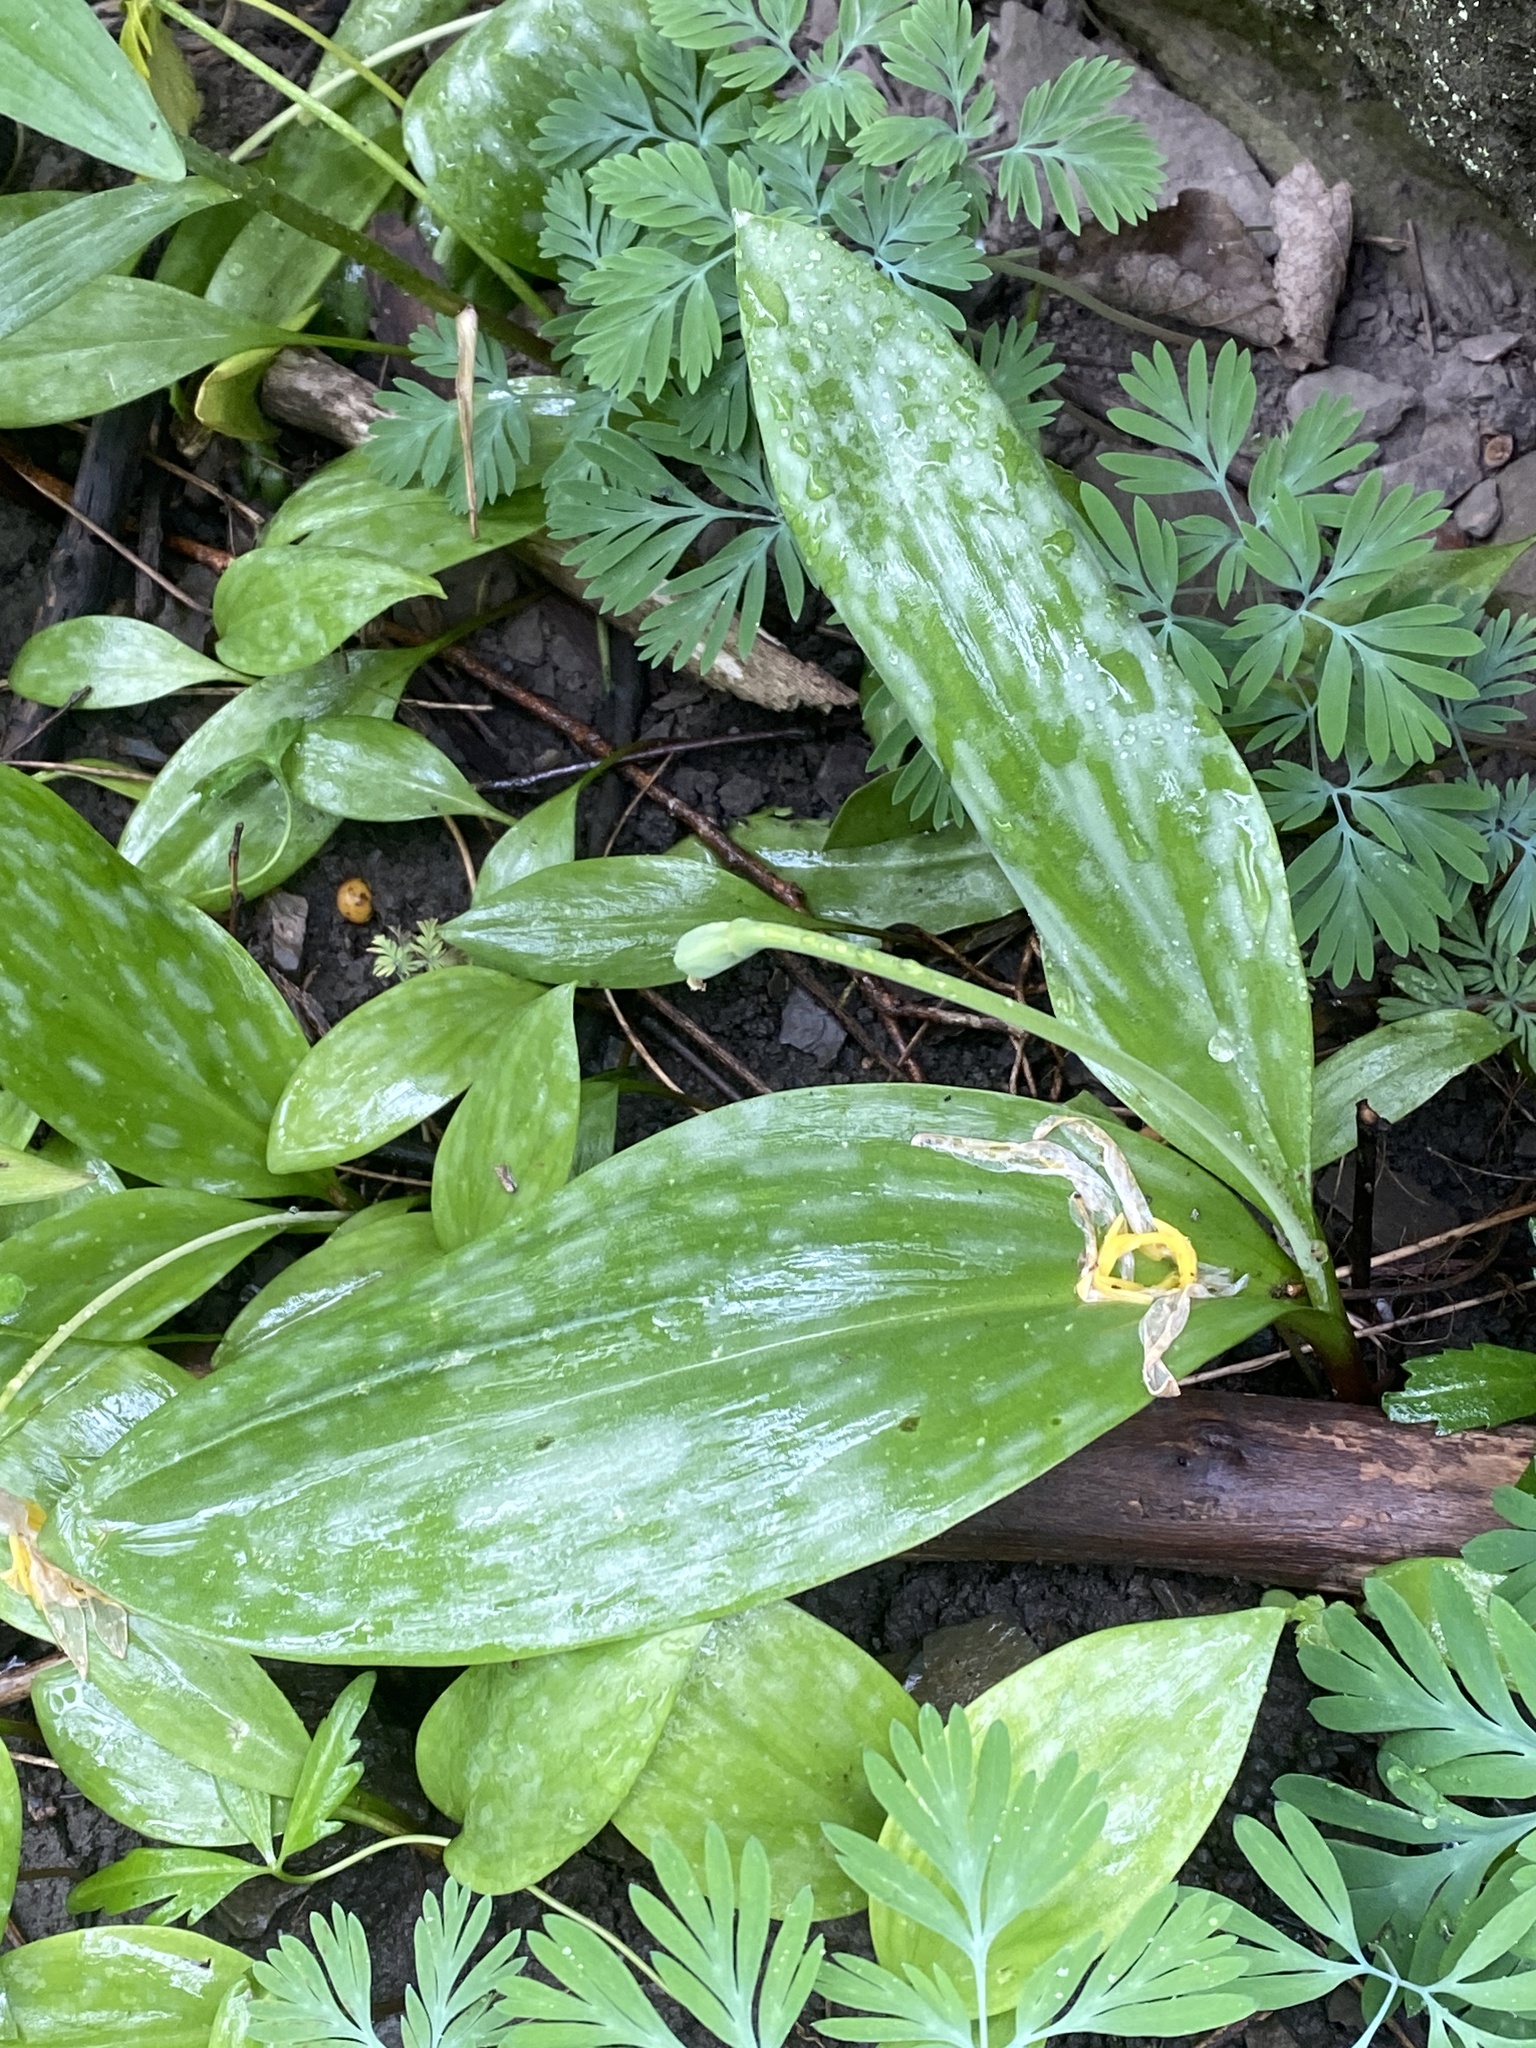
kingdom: Plantae
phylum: Tracheophyta
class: Liliopsida
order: Liliales
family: Liliaceae
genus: Erythronium
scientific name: Erythronium americanum
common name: Yellow adder's-tongue
